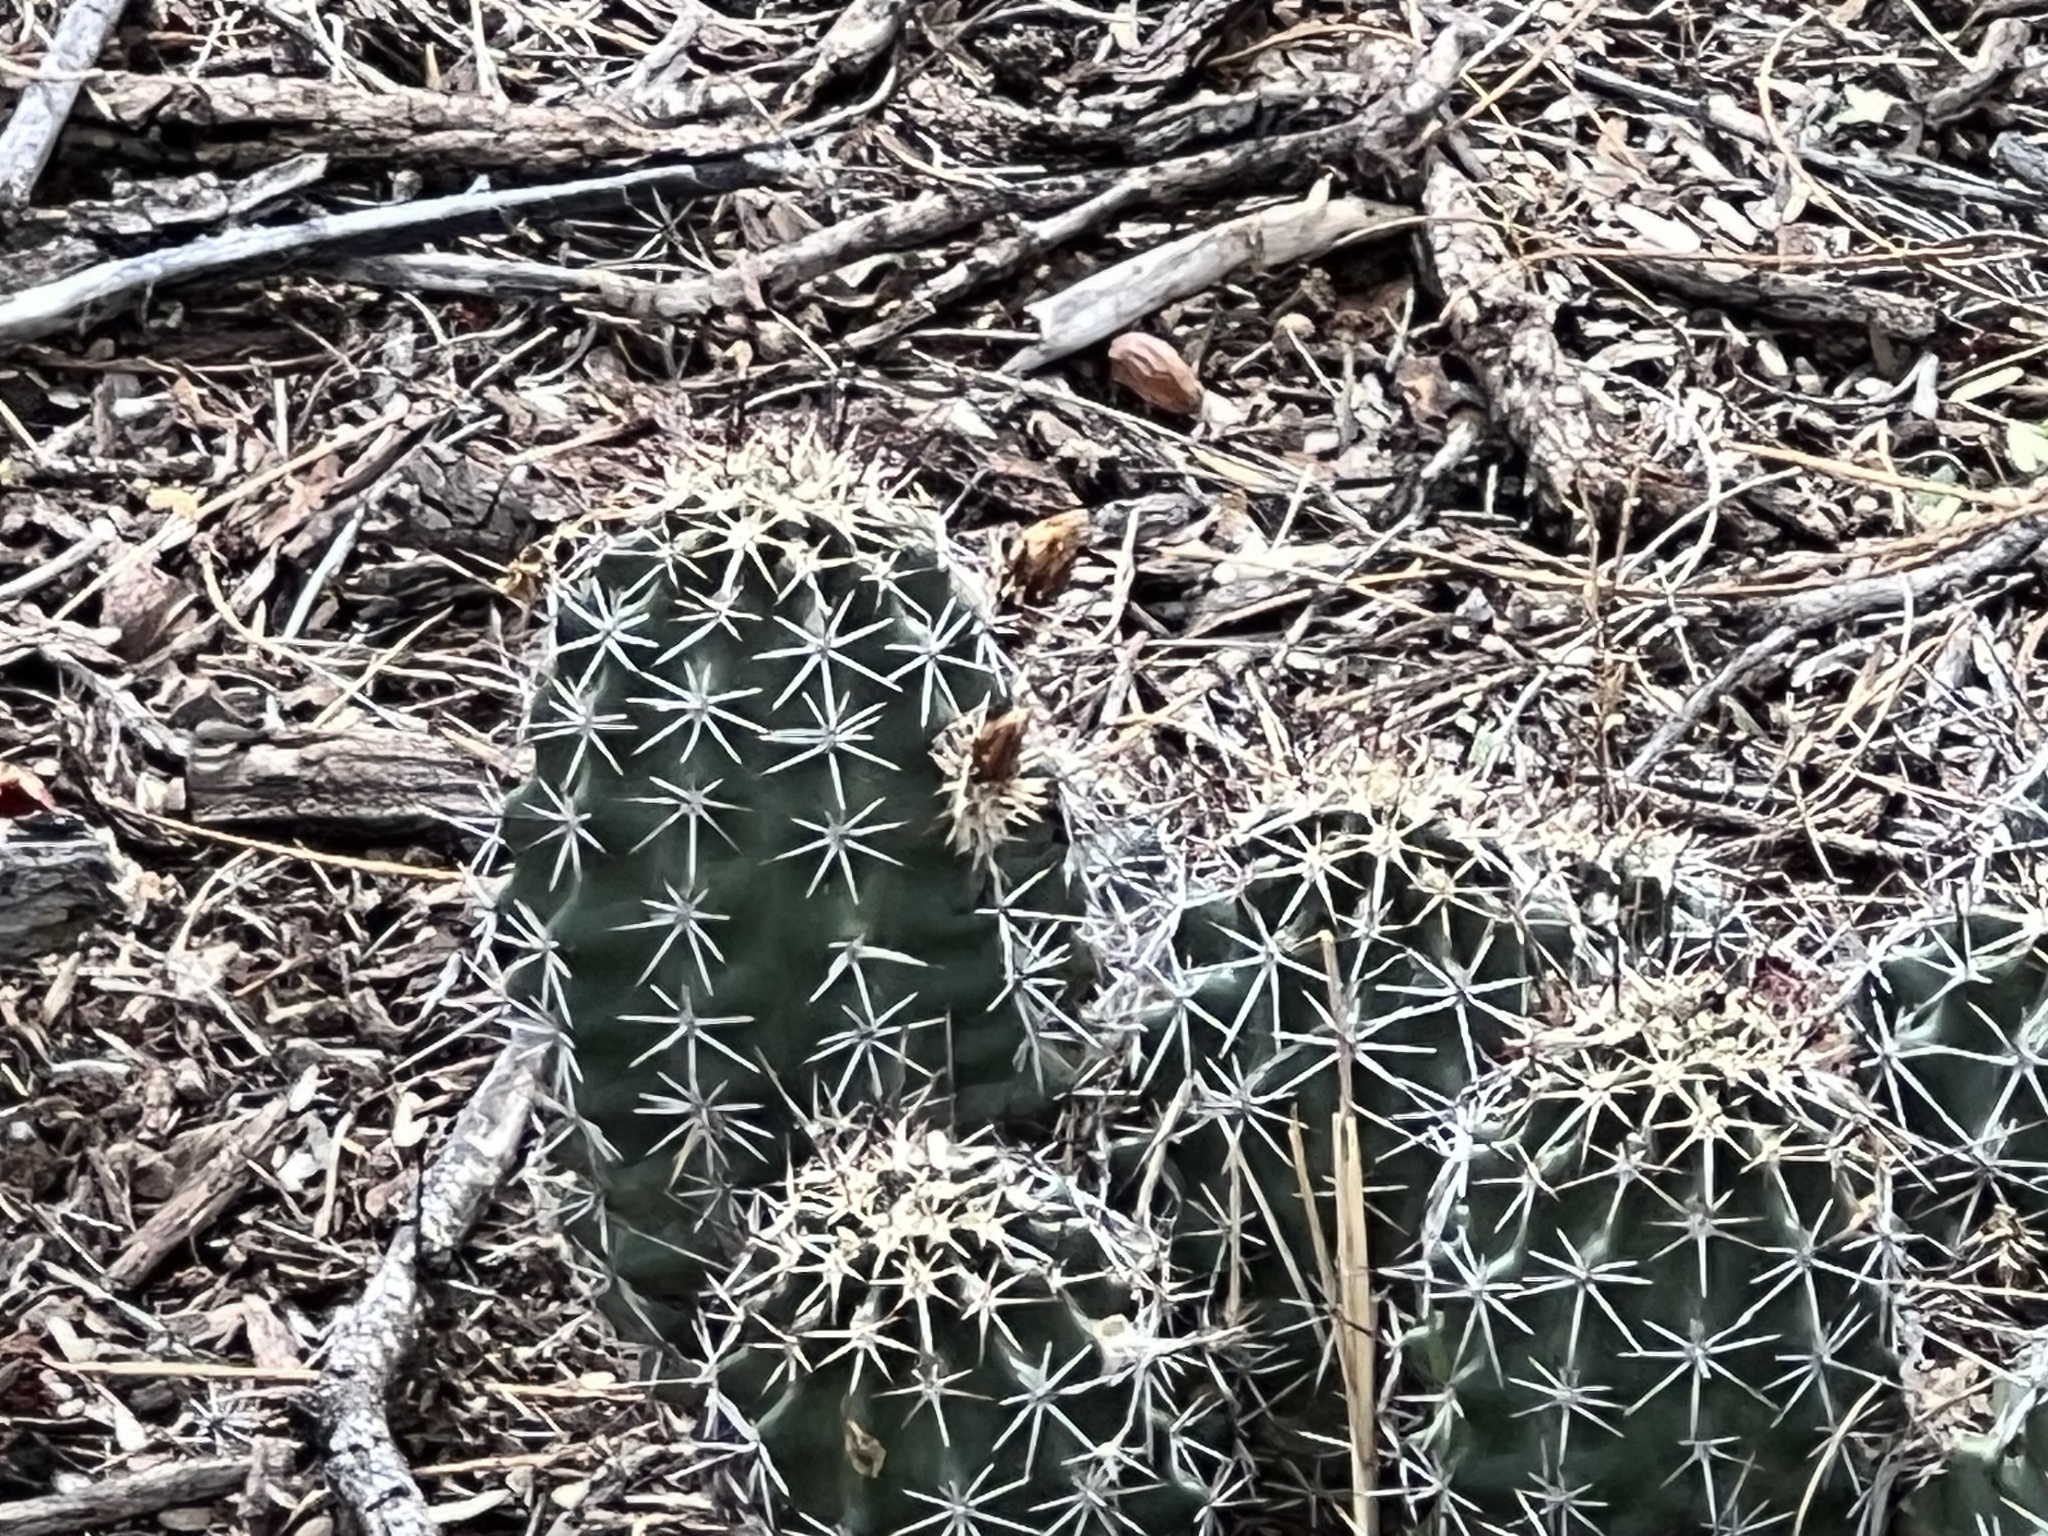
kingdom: Plantae
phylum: Tracheophyta
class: Magnoliopsida
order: Caryophyllales
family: Cactaceae
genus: Echinocereus
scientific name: Echinocereus fendleri
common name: Fendler's hedgehog cactus
